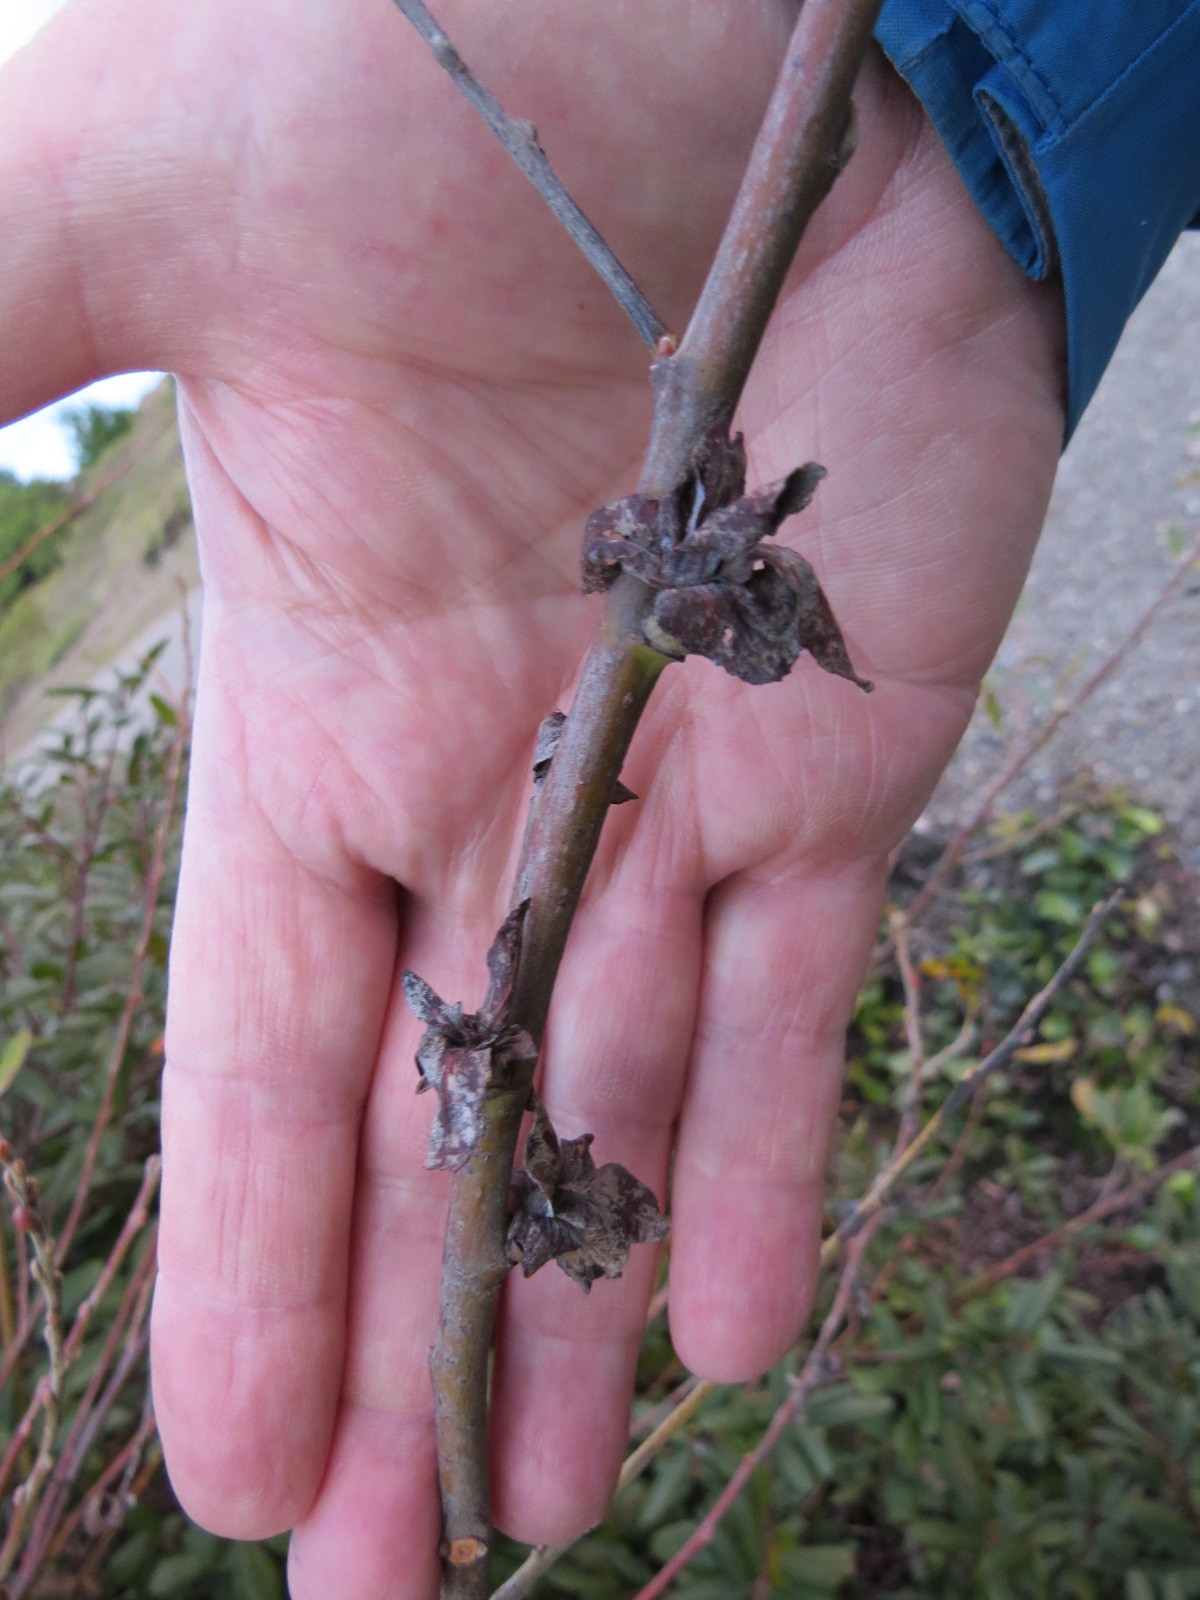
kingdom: Animalia
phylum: Arthropoda
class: Insecta
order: Diptera
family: Cecidomyiidae
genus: Rabdophaga
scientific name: Rabdophaga salicisbrassicoides
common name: Willow cabbagegall midge
